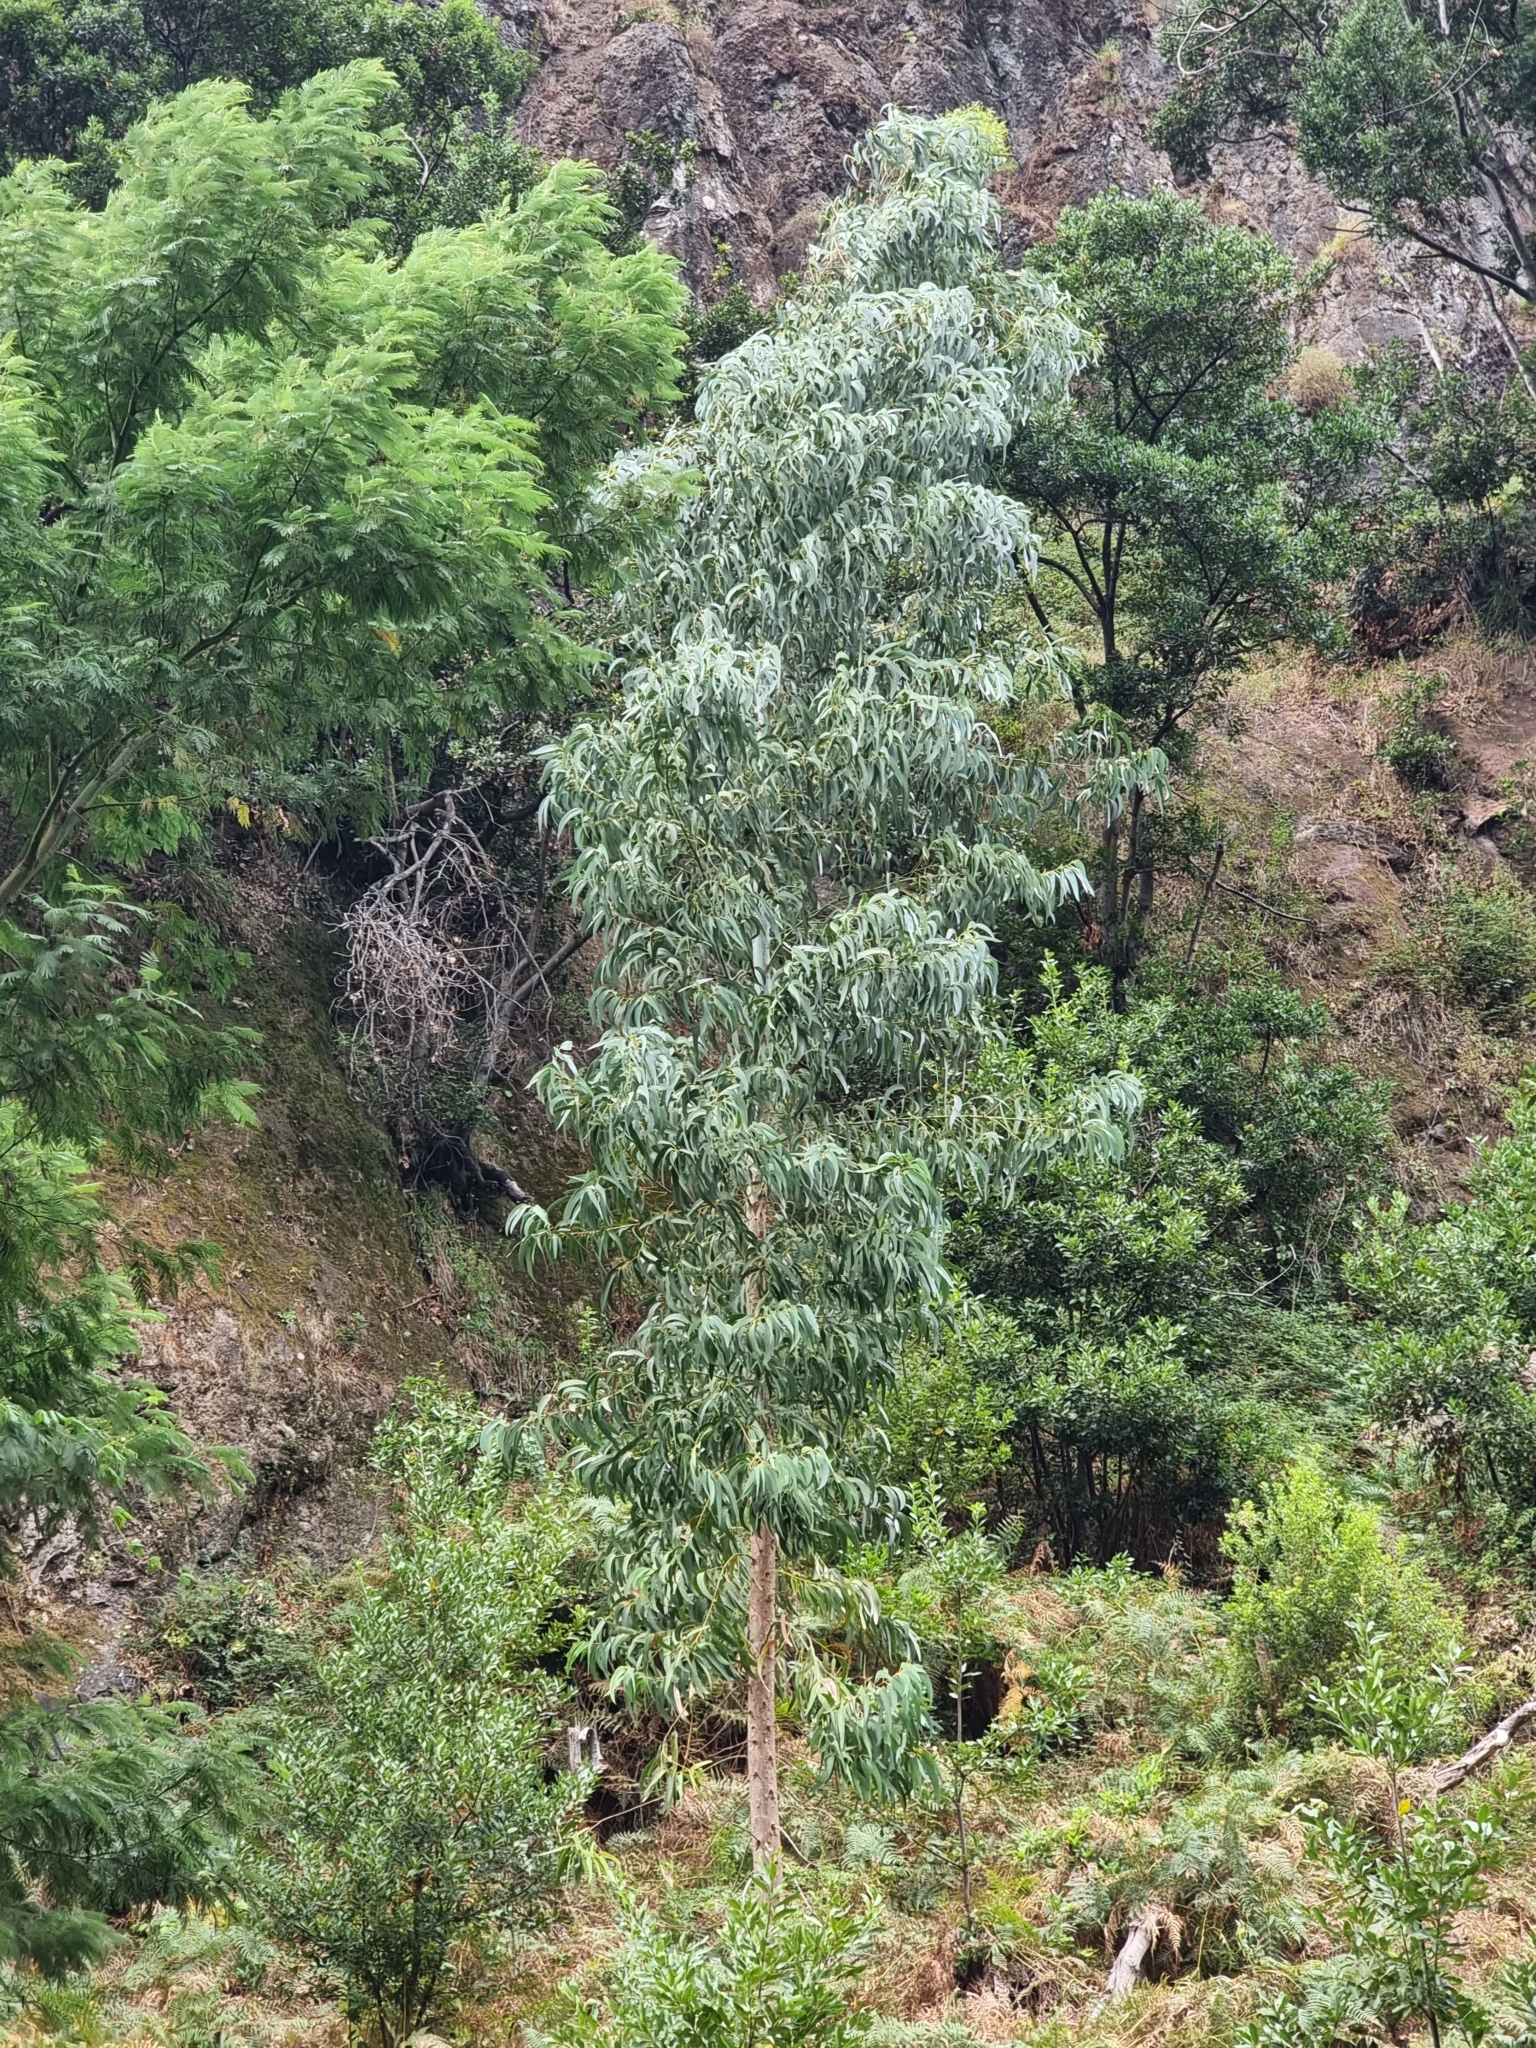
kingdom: Plantae
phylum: Tracheophyta
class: Magnoliopsida
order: Myrtales
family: Myrtaceae
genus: Eucalyptus
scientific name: Eucalyptus globulus
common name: Southern blue-gum
